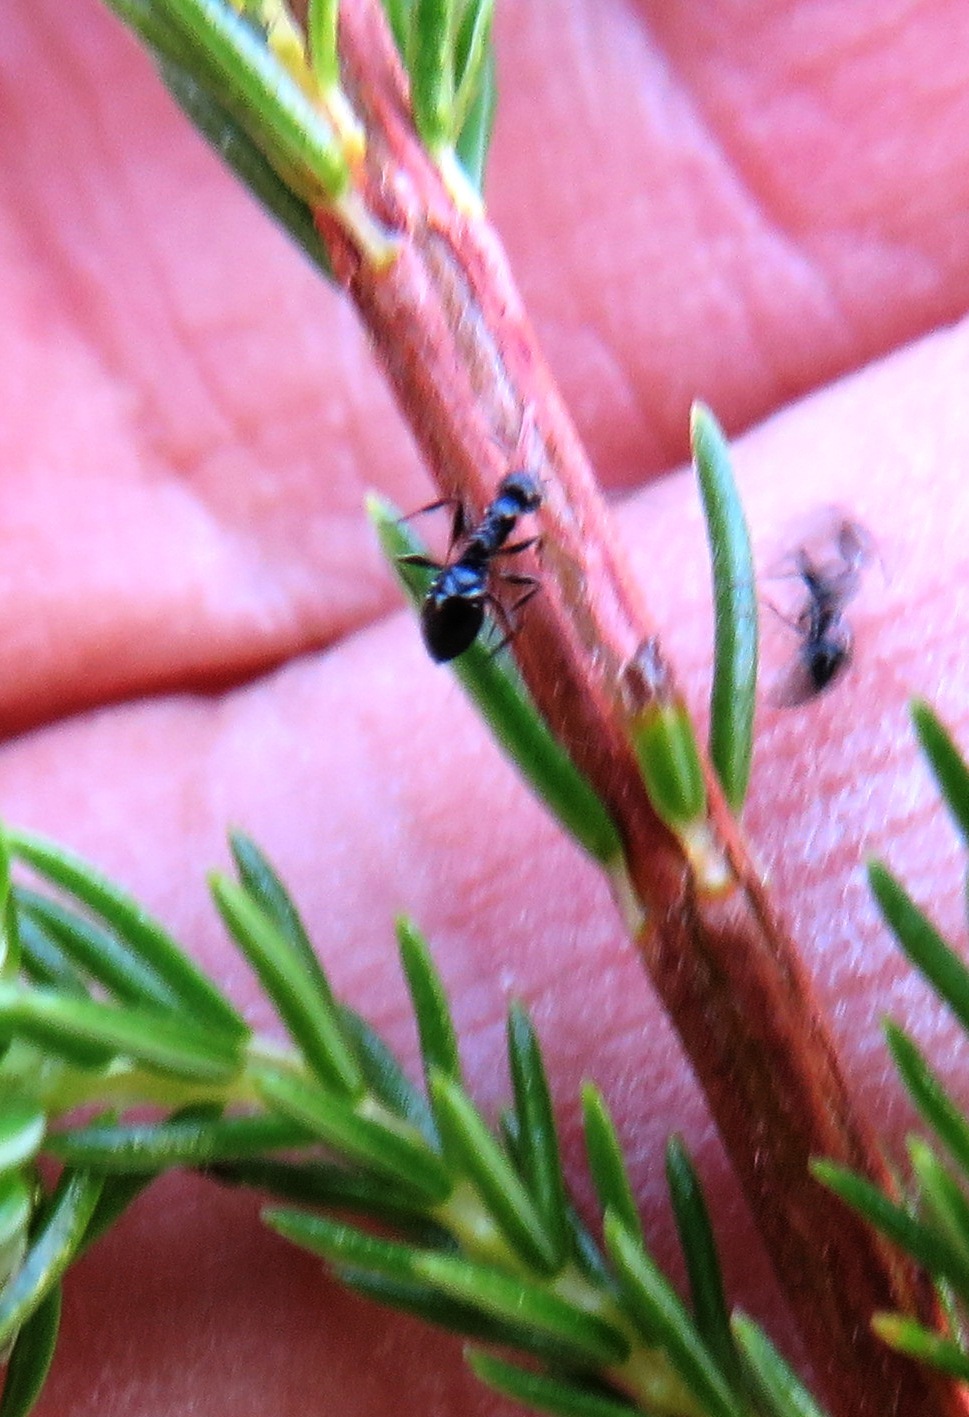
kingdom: Animalia
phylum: Arthropoda
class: Insecta
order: Hymenoptera
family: Formicidae
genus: Lepisiota
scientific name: Lepisiota capensis
